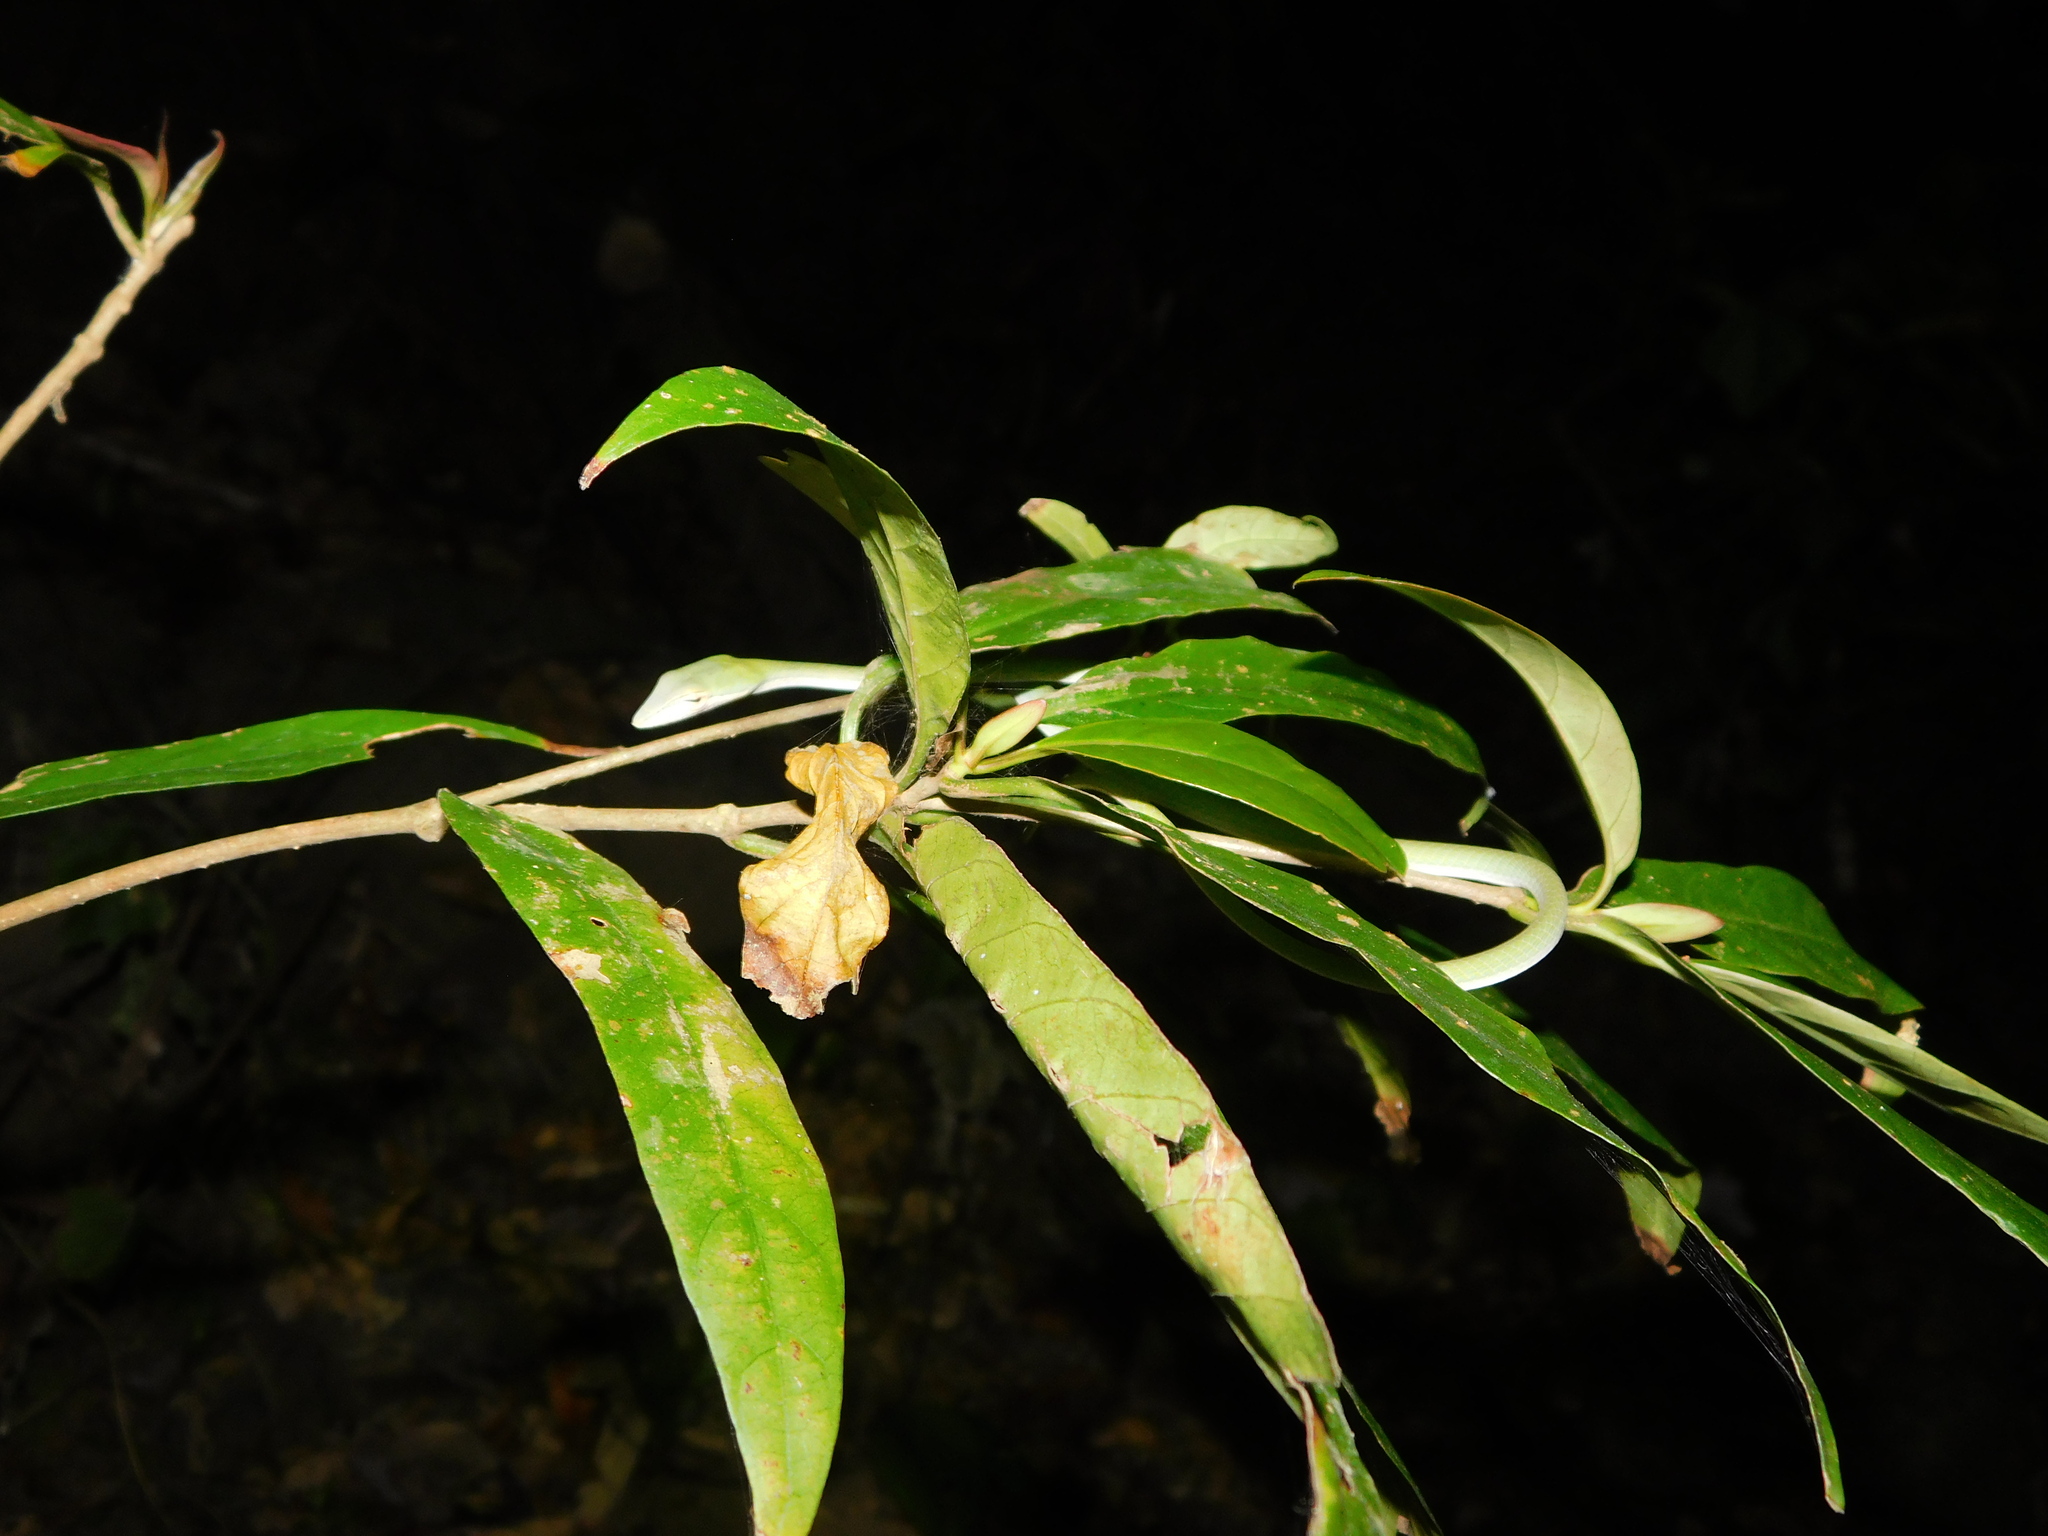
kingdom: Animalia
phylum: Chordata
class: Squamata
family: Colubridae
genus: Ahaetulla
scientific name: Ahaetulla mycterizans
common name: Malayan whip snake
